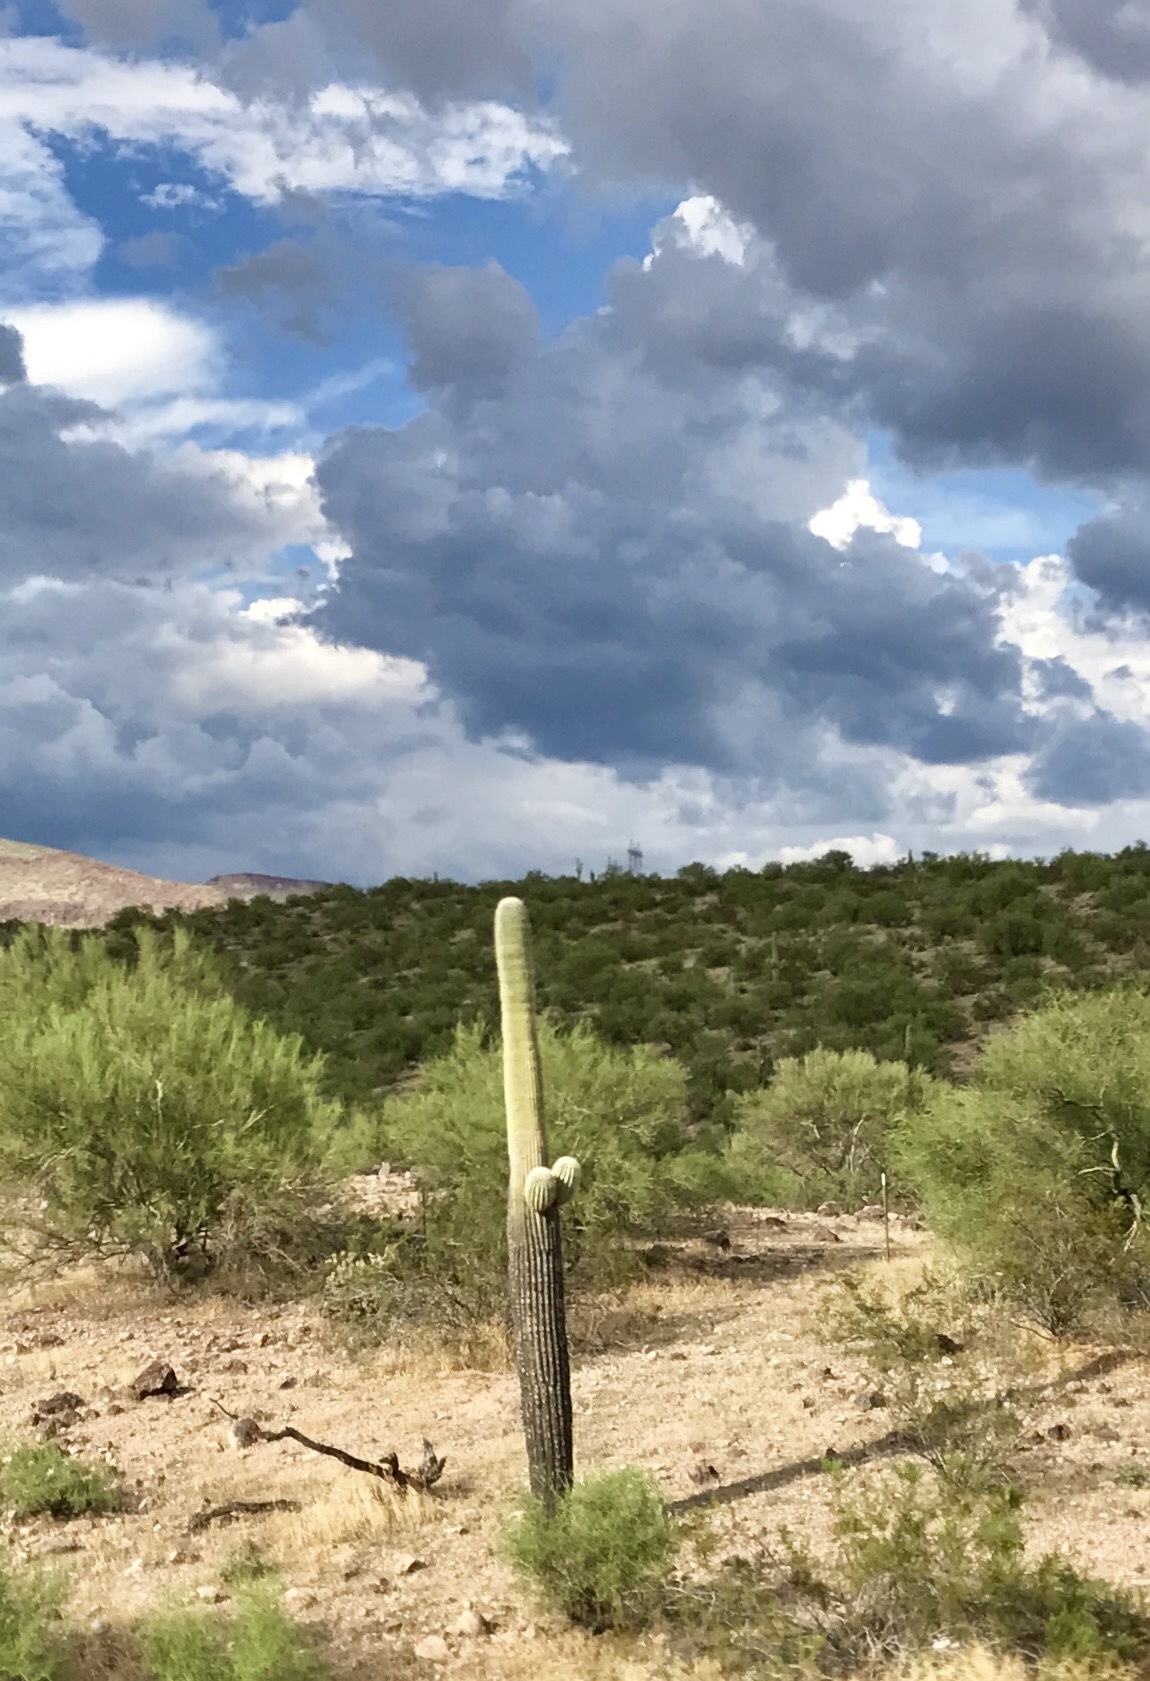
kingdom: Plantae
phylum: Tracheophyta
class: Magnoliopsida
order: Caryophyllales
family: Cactaceae
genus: Carnegiea
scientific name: Carnegiea gigantea
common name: Saguaro
